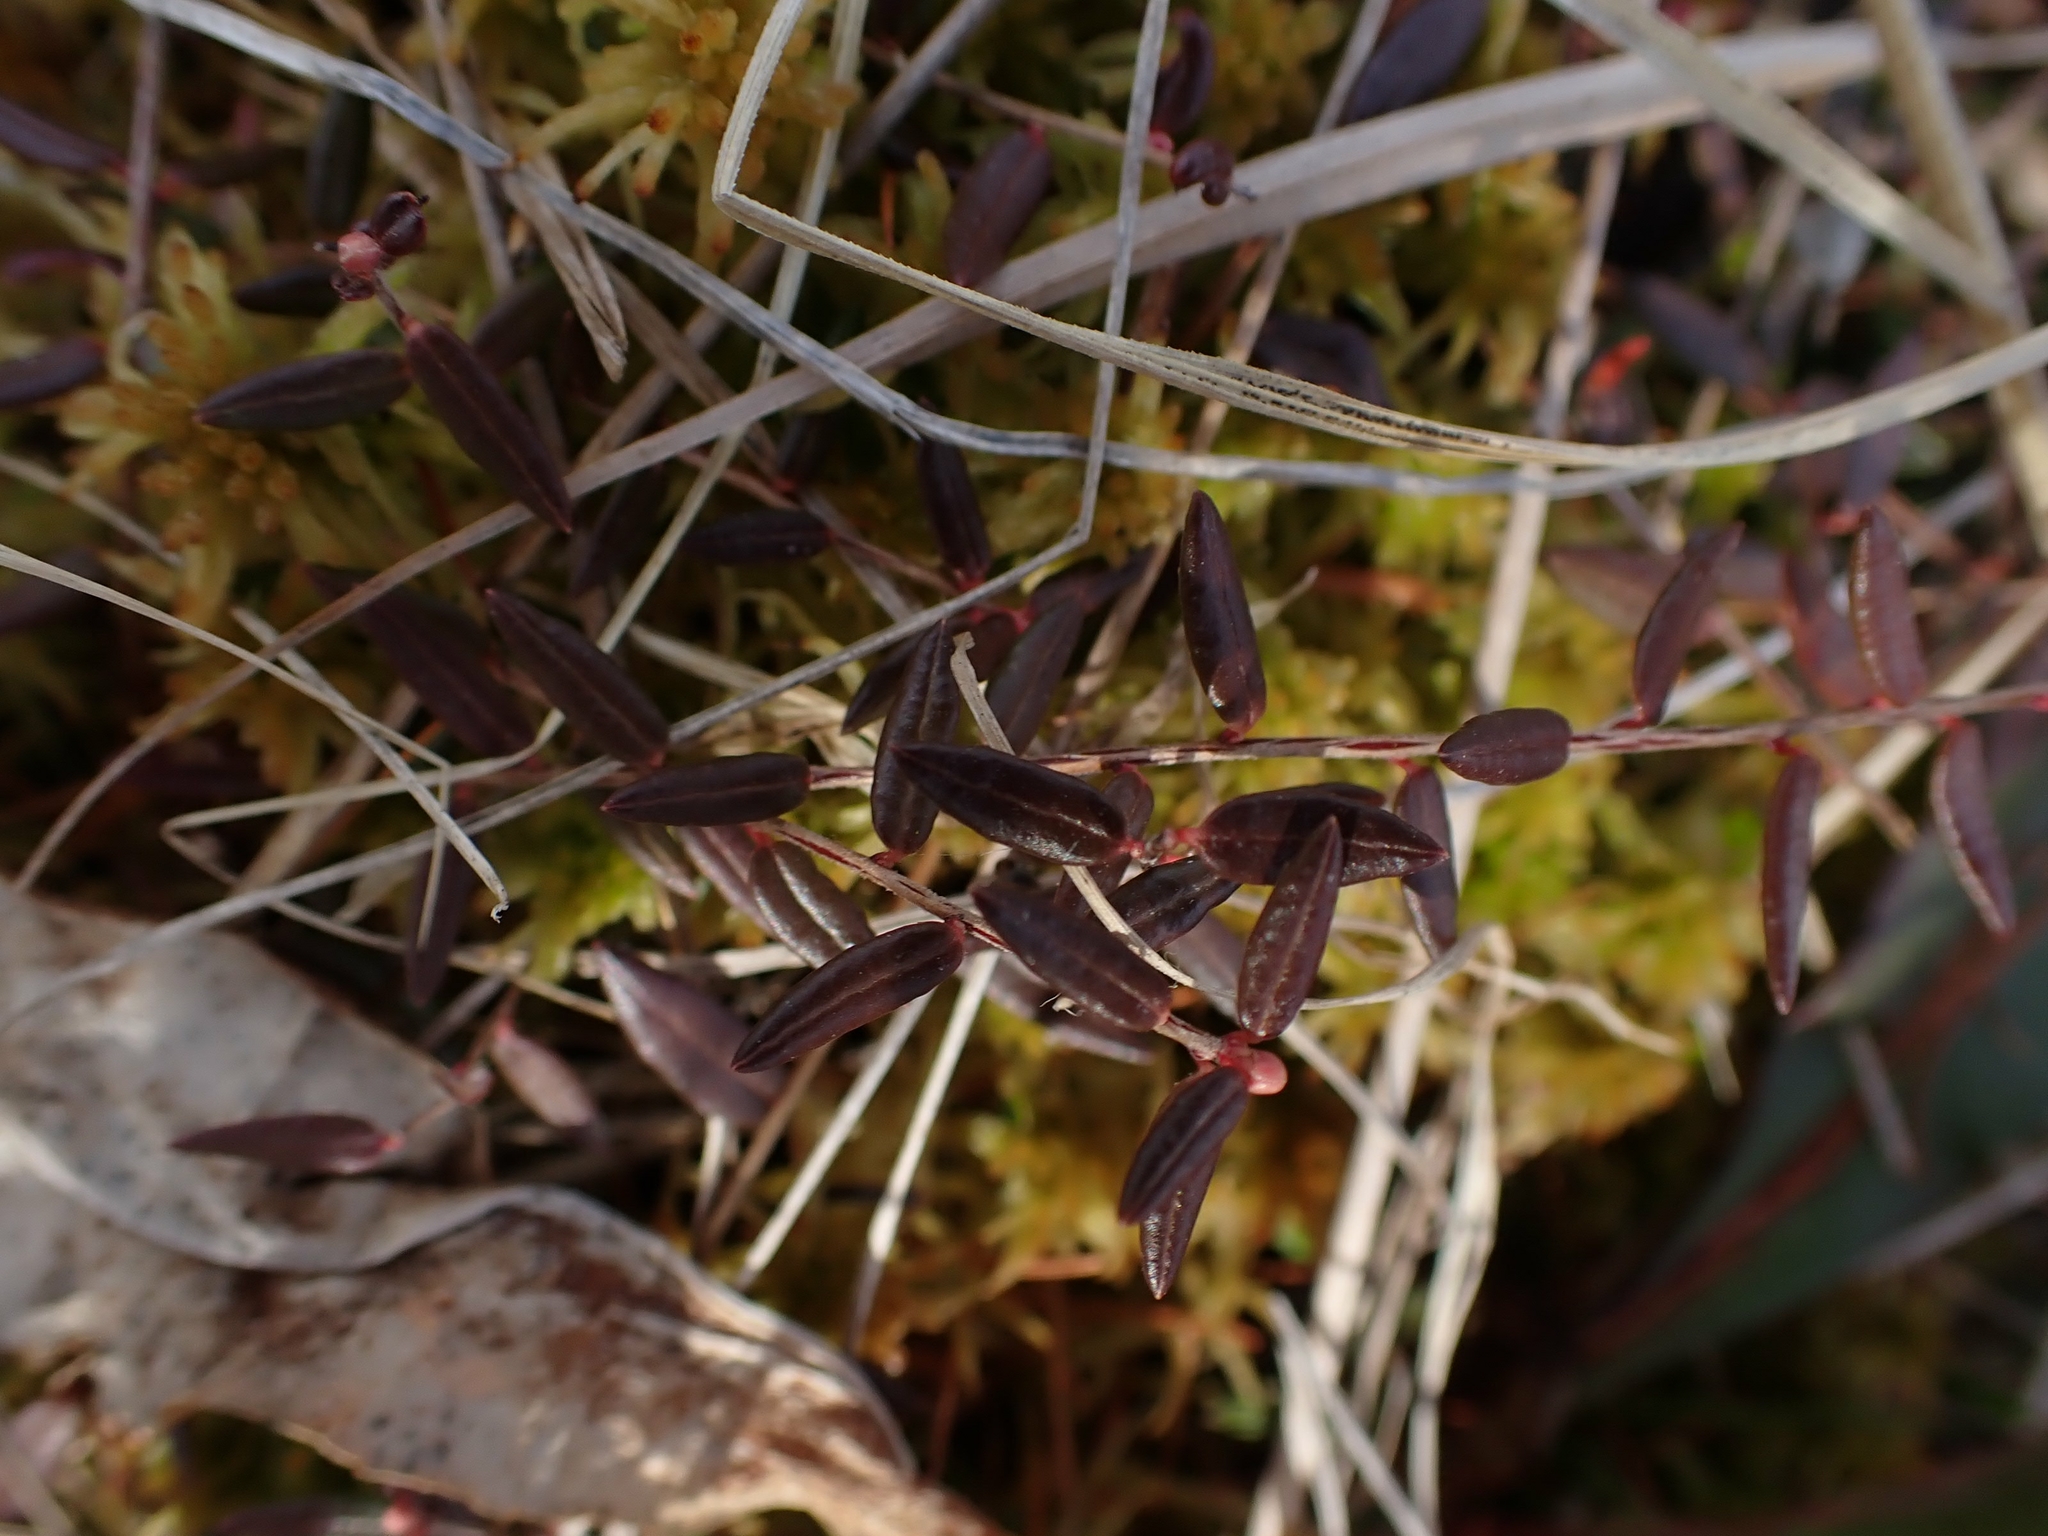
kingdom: Plantae
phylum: Tracheophyta
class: Magnoliopsida
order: Ericales
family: Ericaceae
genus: Vaccinium
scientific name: Vaccinium oxycoccos
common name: Cranberry
